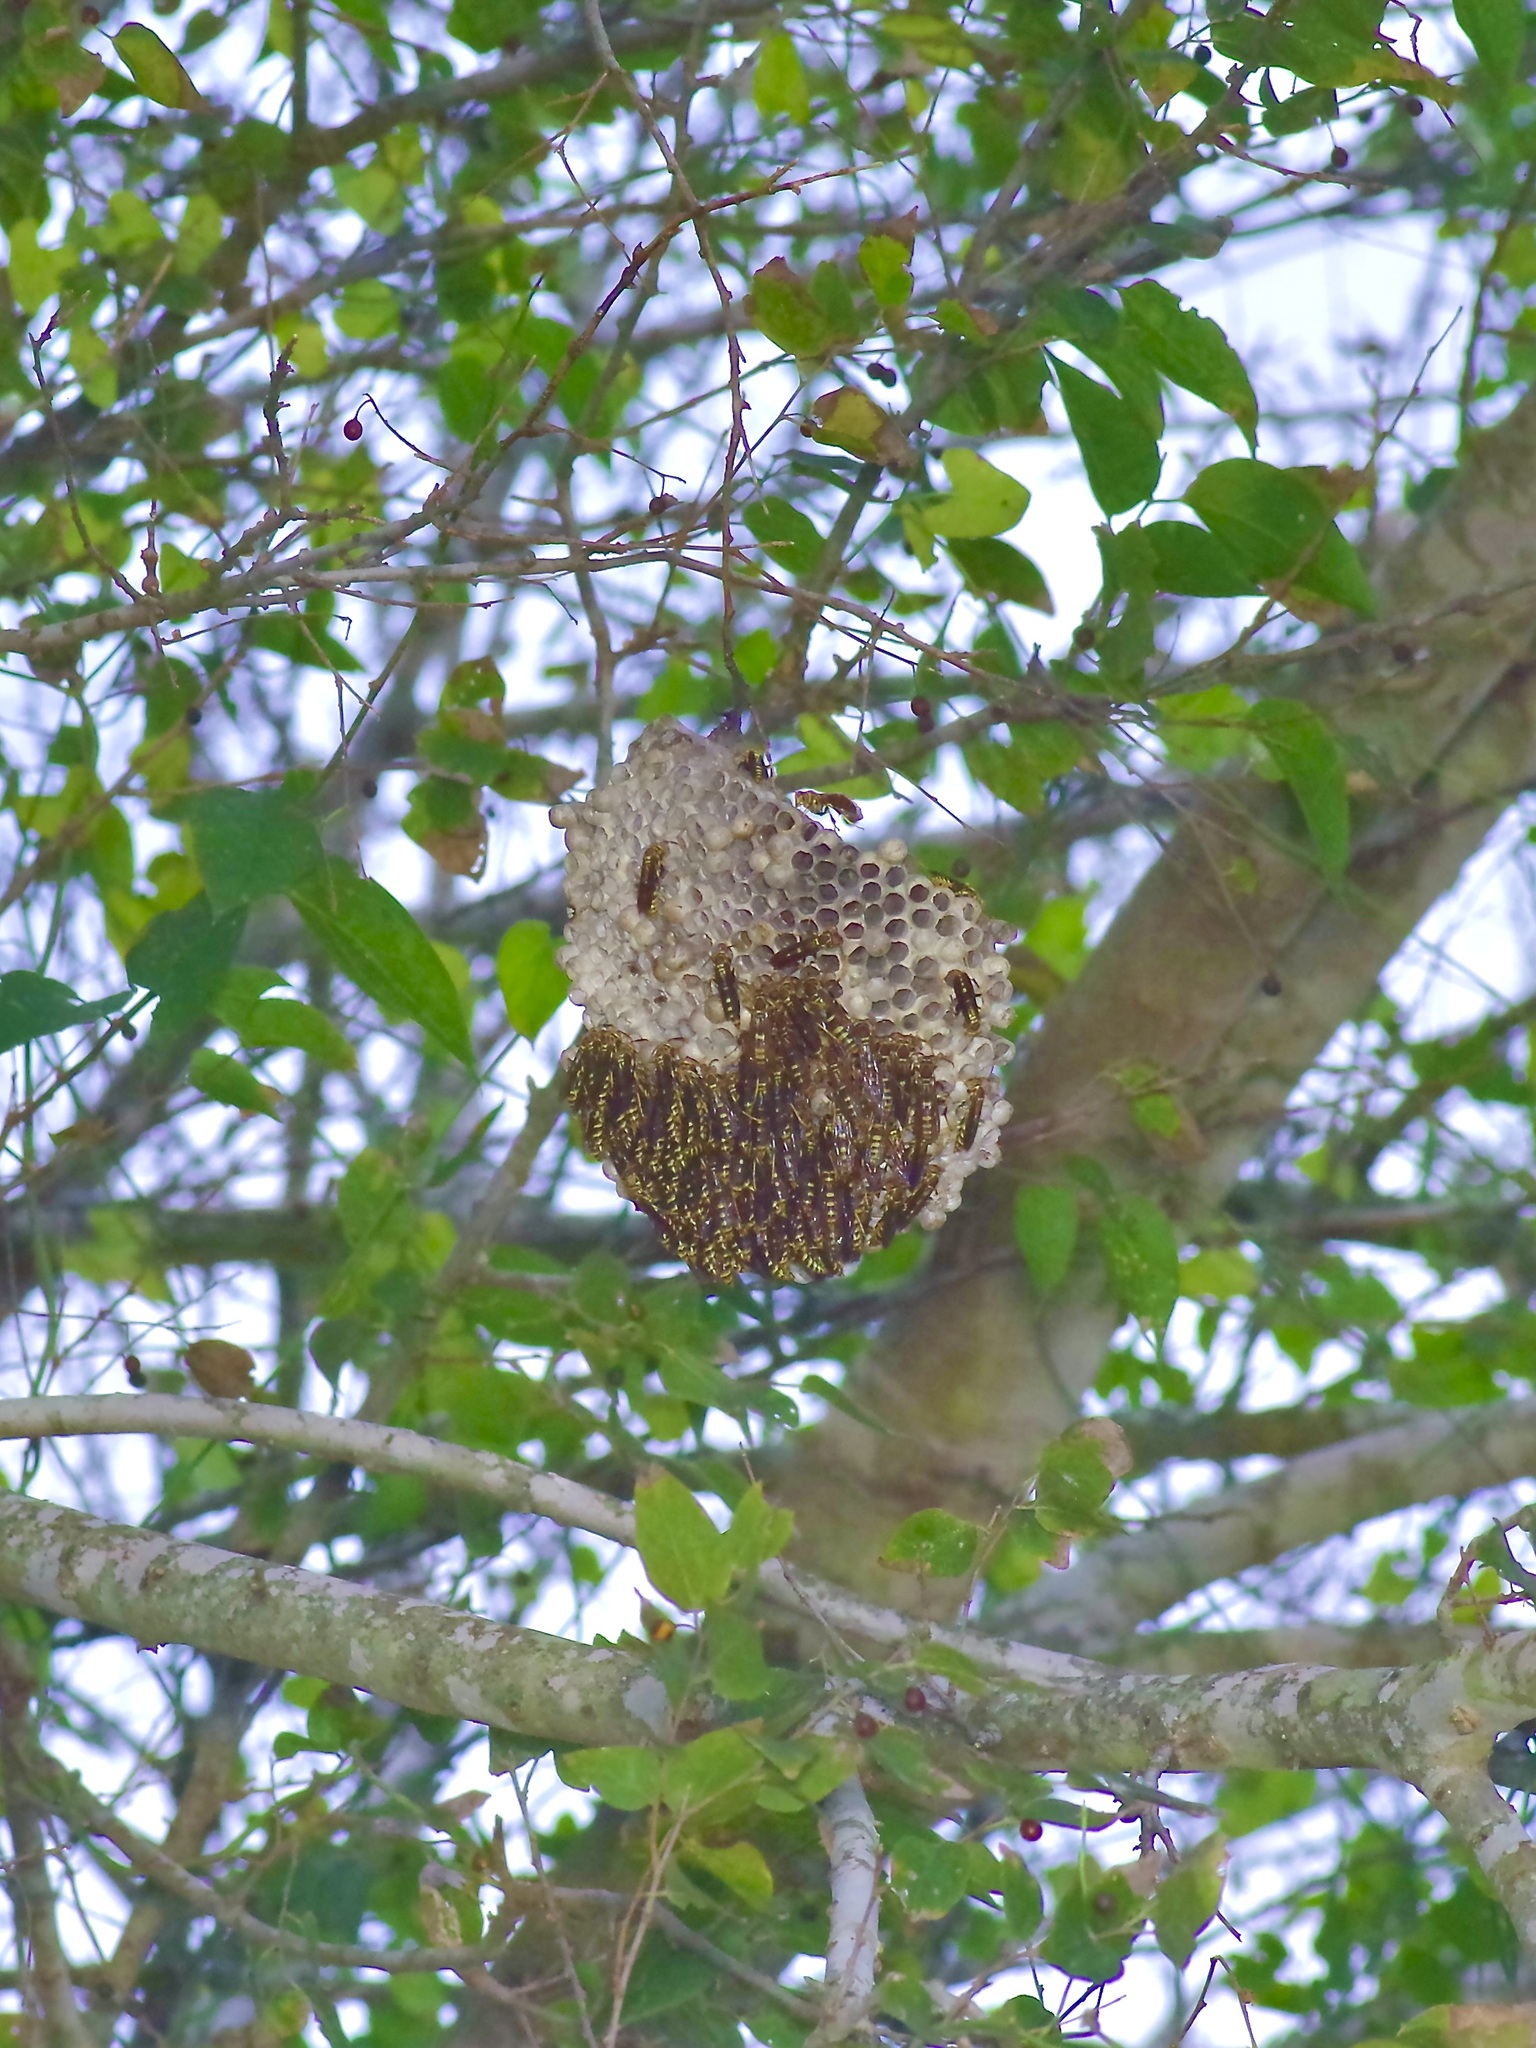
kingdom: Animalia
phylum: Arthropoda
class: Insecta
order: Hymenoptera
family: Eumenidae
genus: Polistes
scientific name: Polistes
